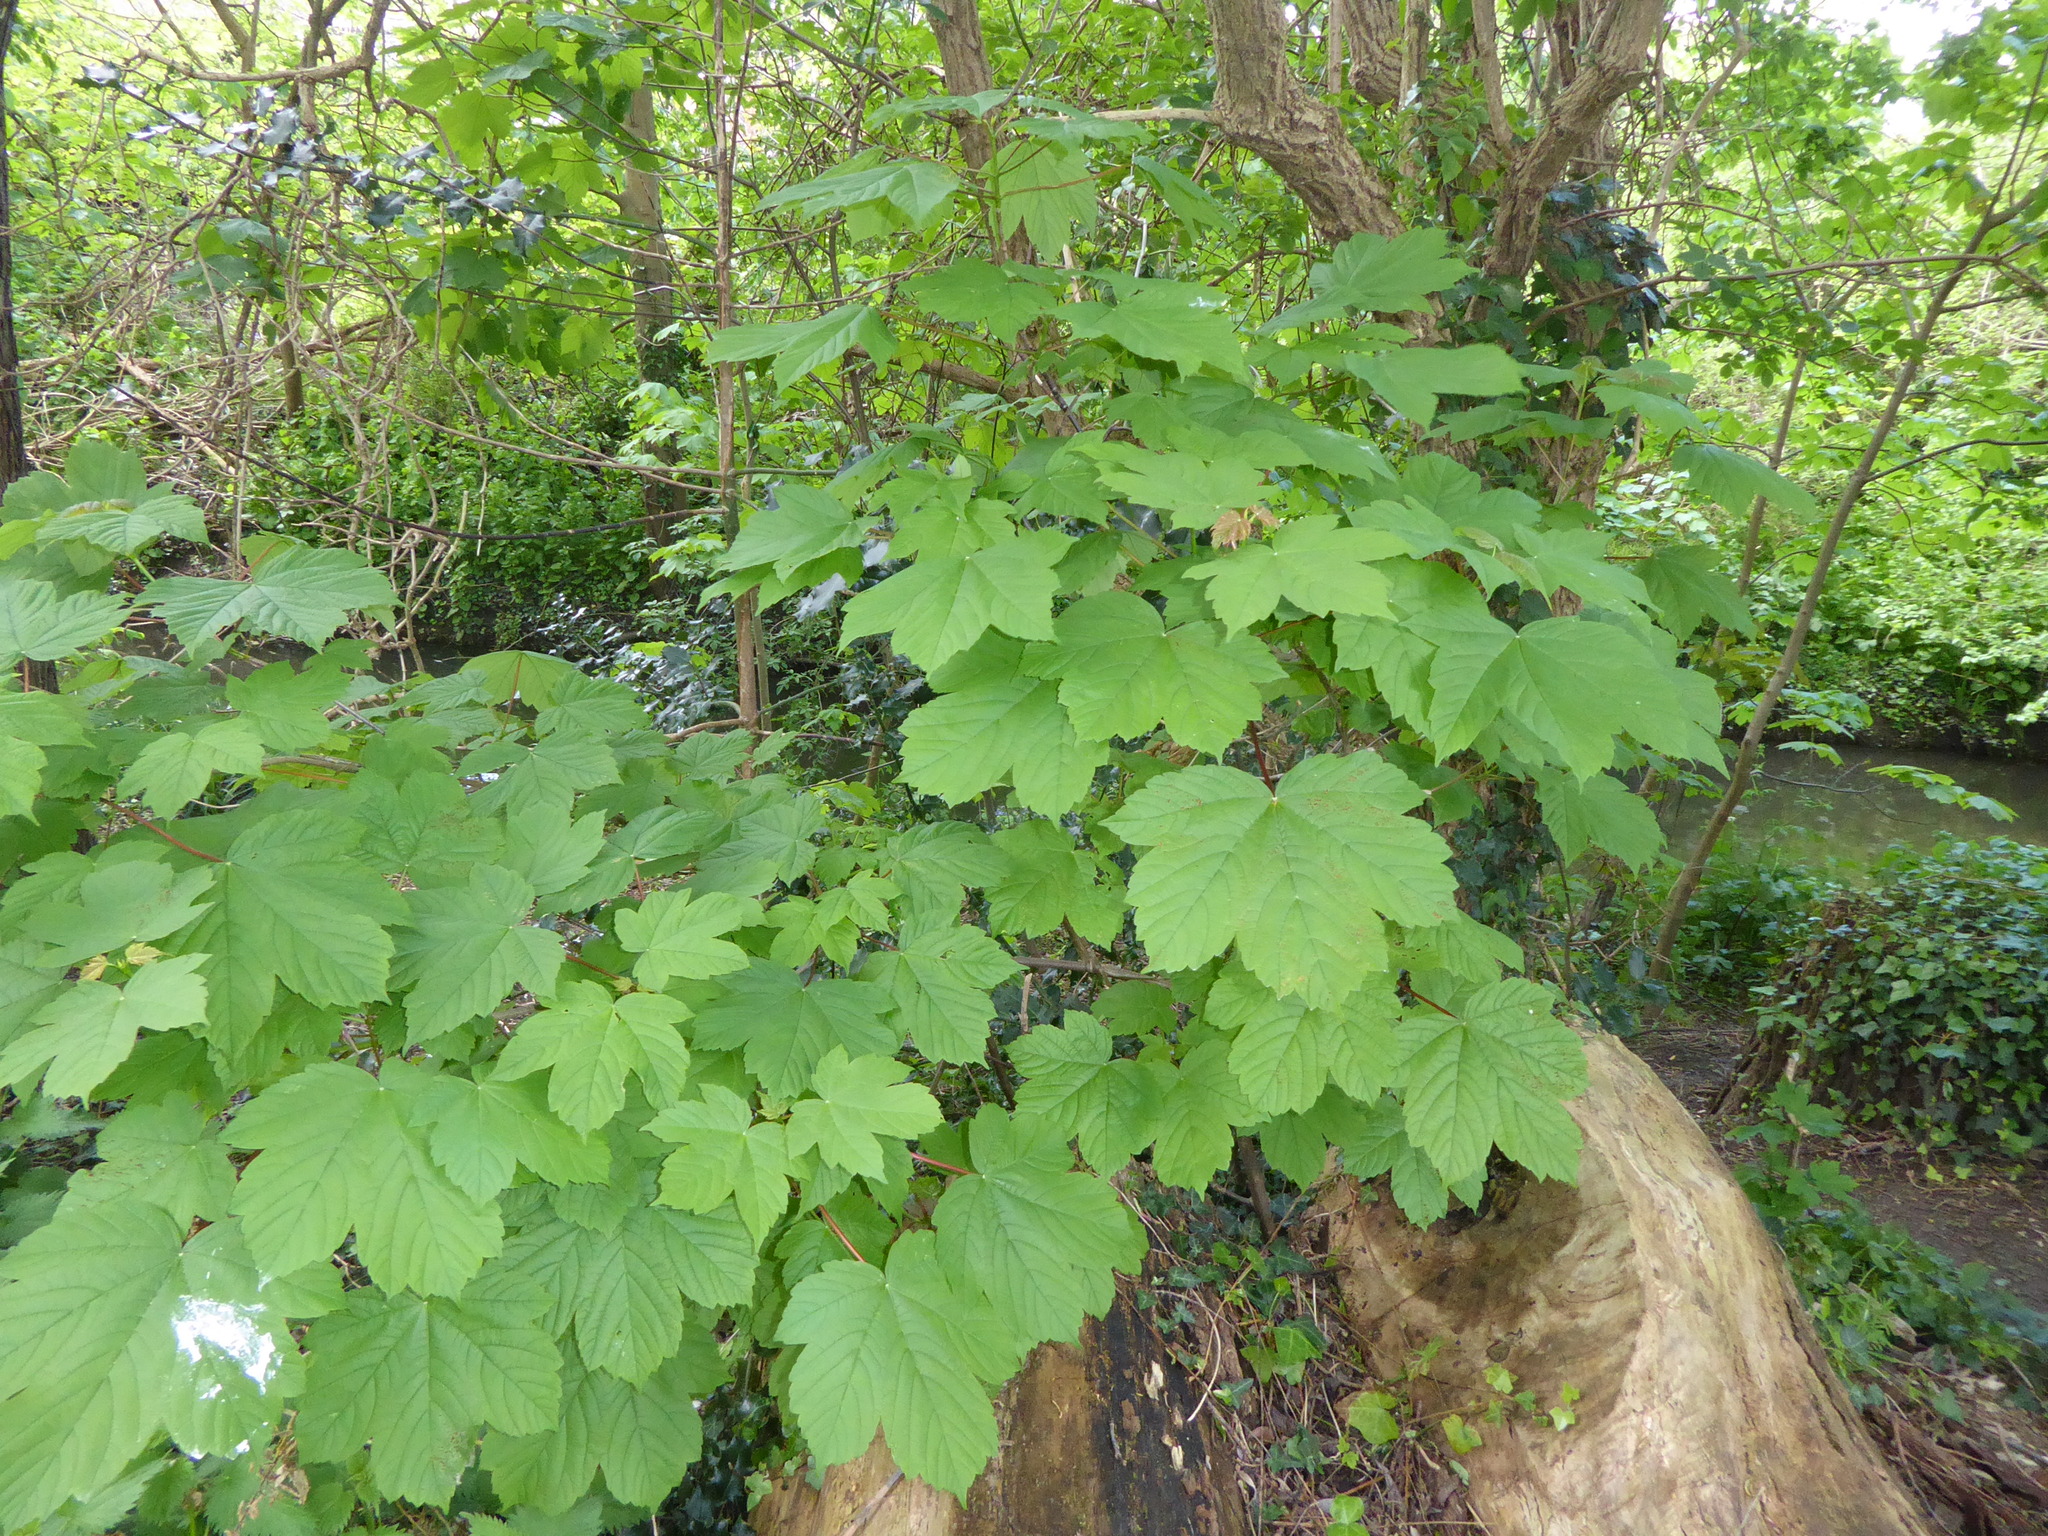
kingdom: Plantae
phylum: Tracheophyta
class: Magnoliopsida
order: Sapindales
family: Sapindaceae
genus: Acer
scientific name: Acer pseudoplatanus
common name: Sycamore
